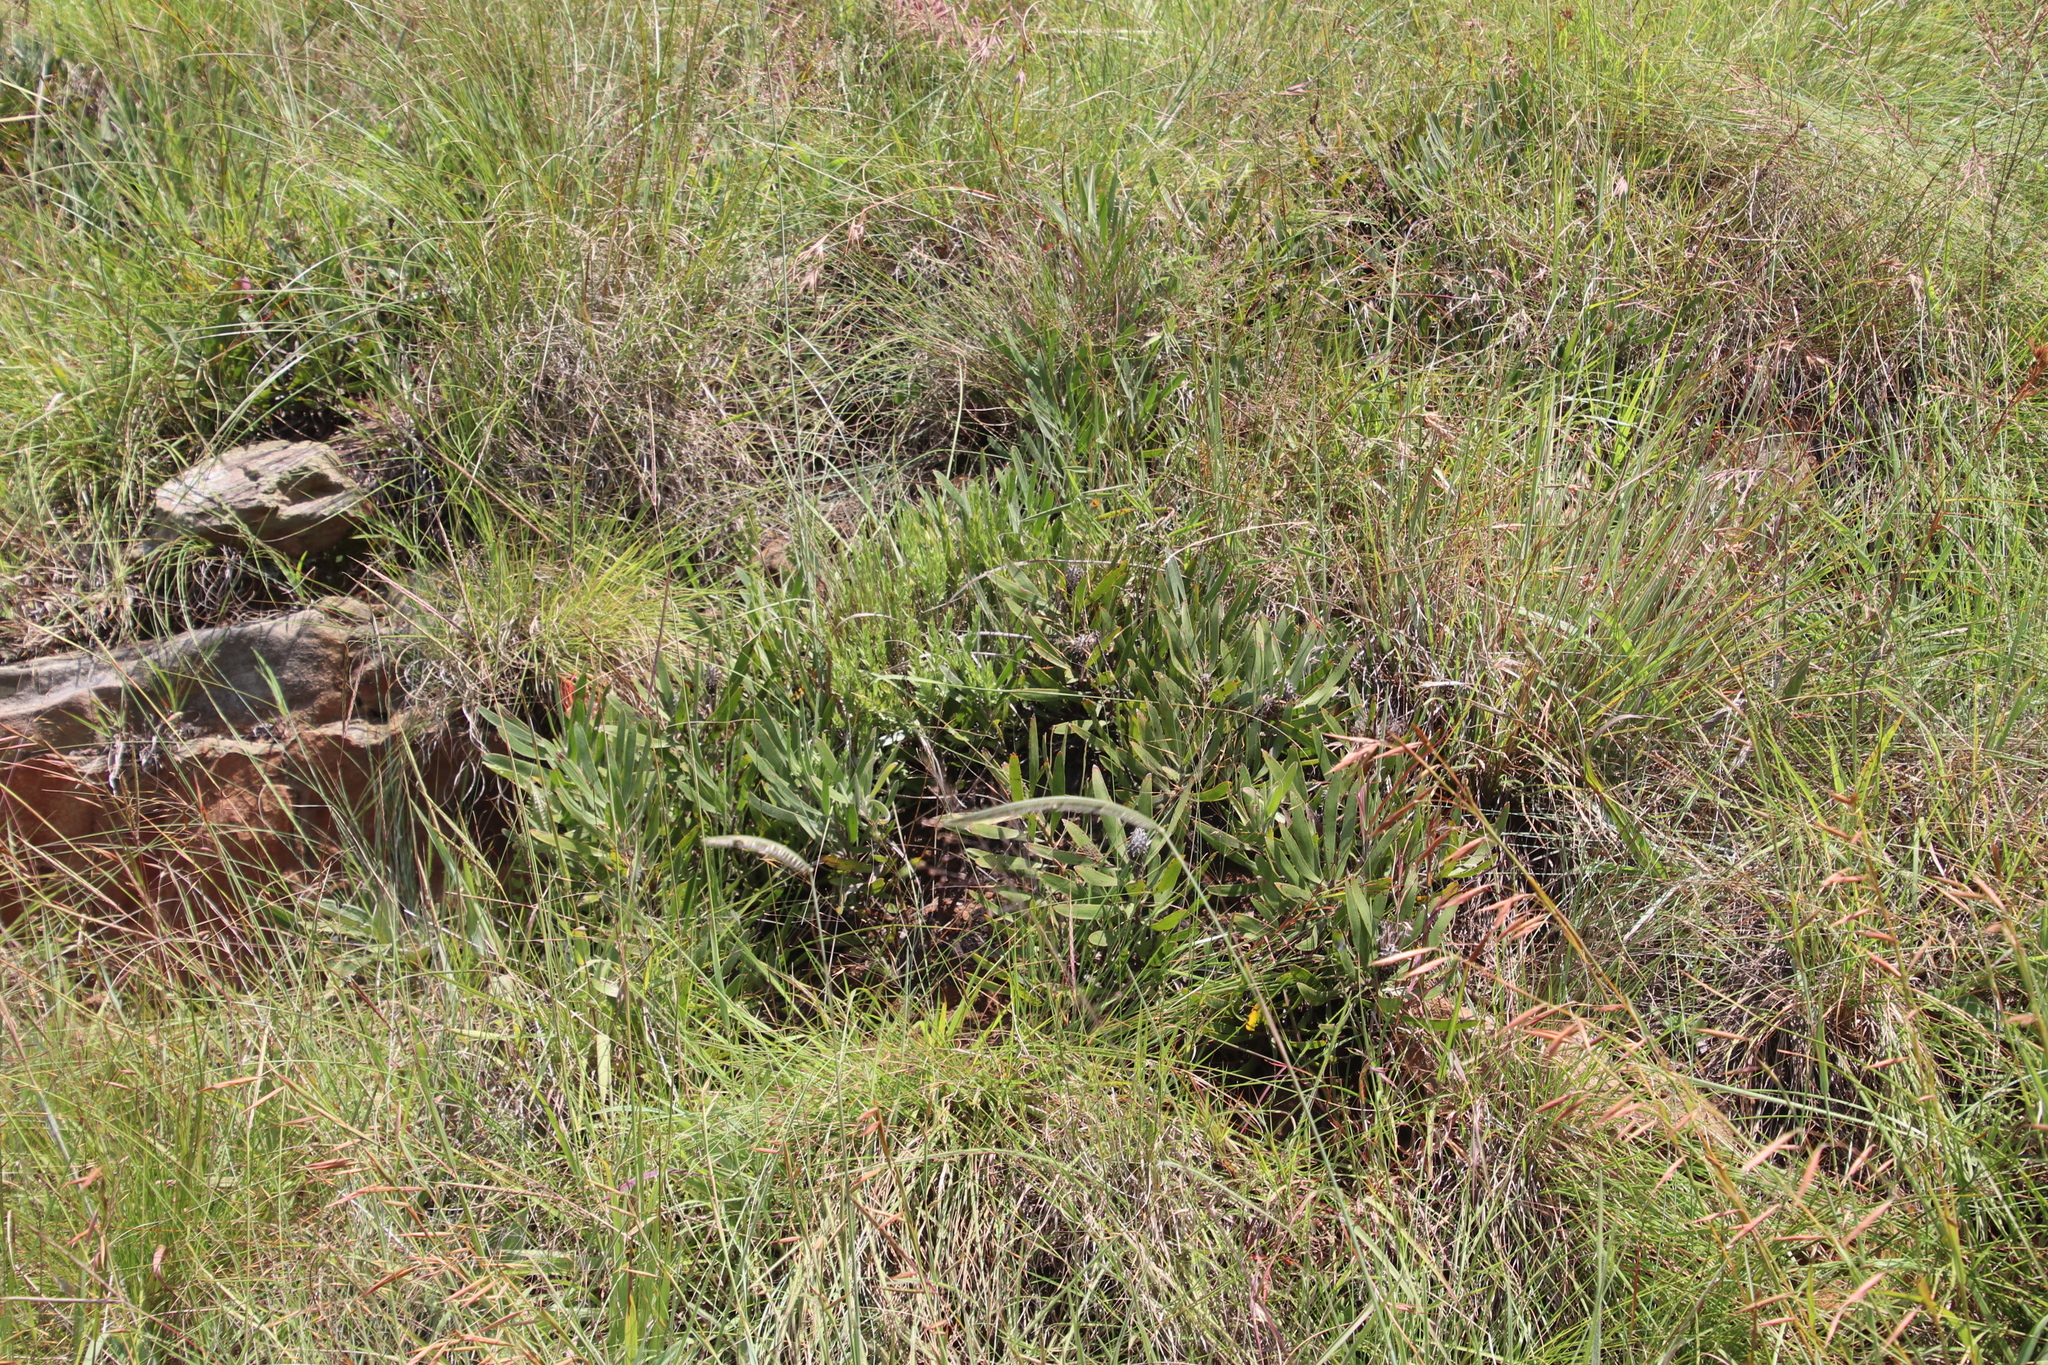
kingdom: Plantae
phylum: Tracheophyta
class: Magnoliopsida
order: Proteales
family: Proteaceae
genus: Leucospermum
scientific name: Leucospermum gerrardii
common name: Soapstone pincushion
